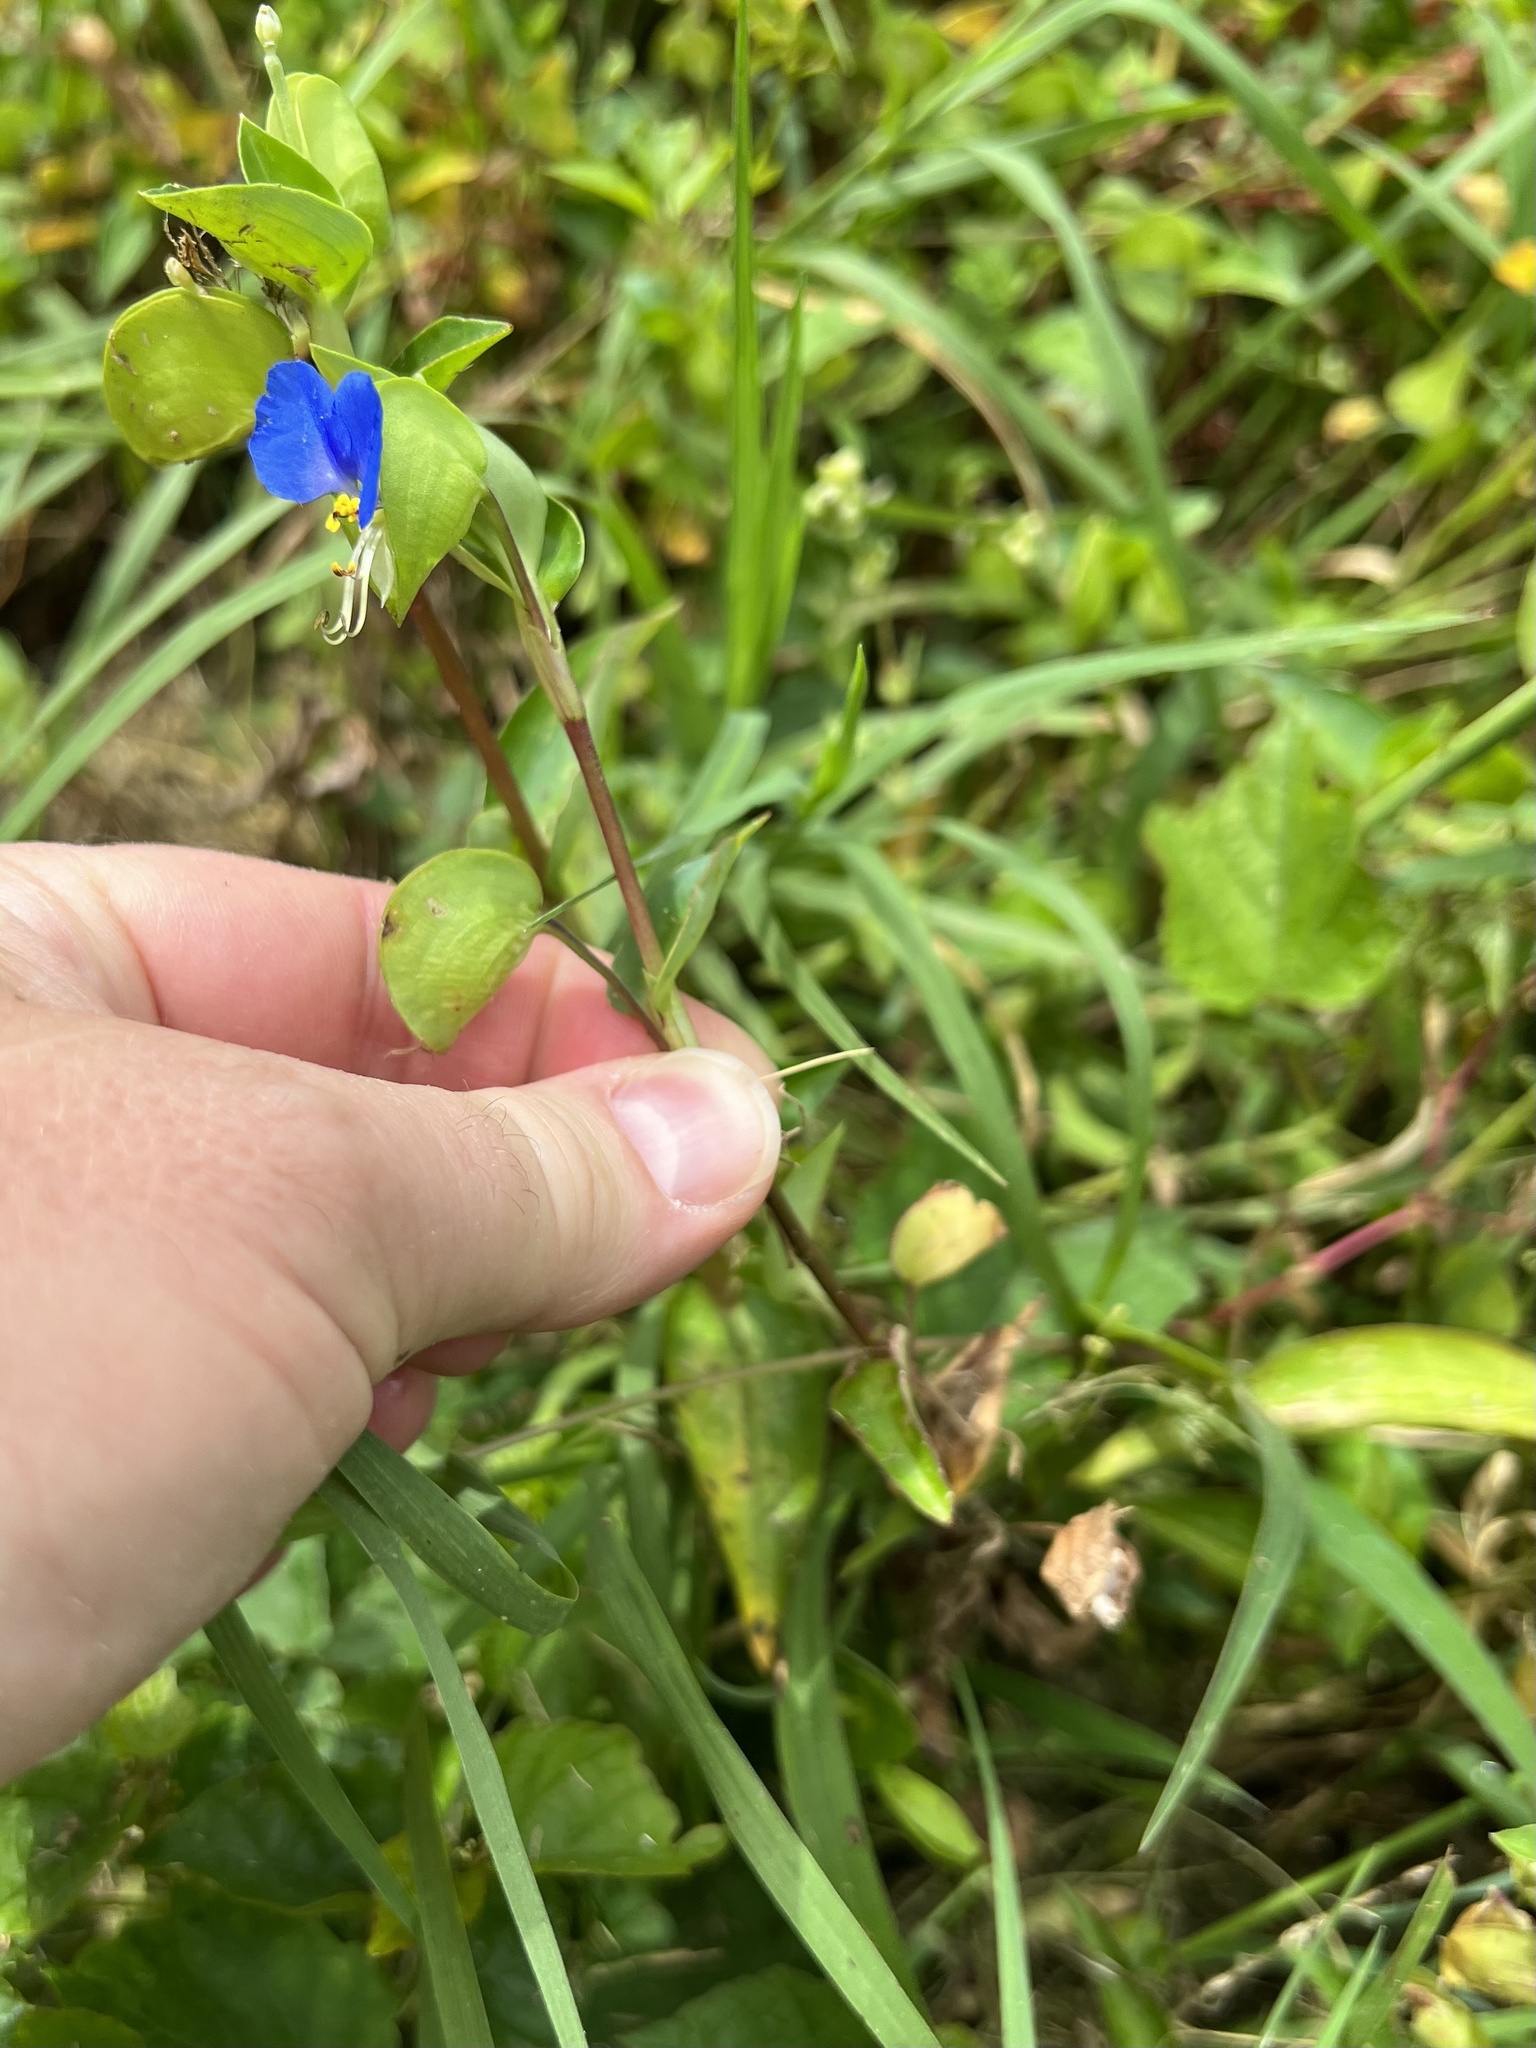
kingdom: Plantae
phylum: Tracheophyta
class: Liliopsida
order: Commelinales
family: Commelinaceae
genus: Commelina
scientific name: Commelina communis
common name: Asiatic dayflower
